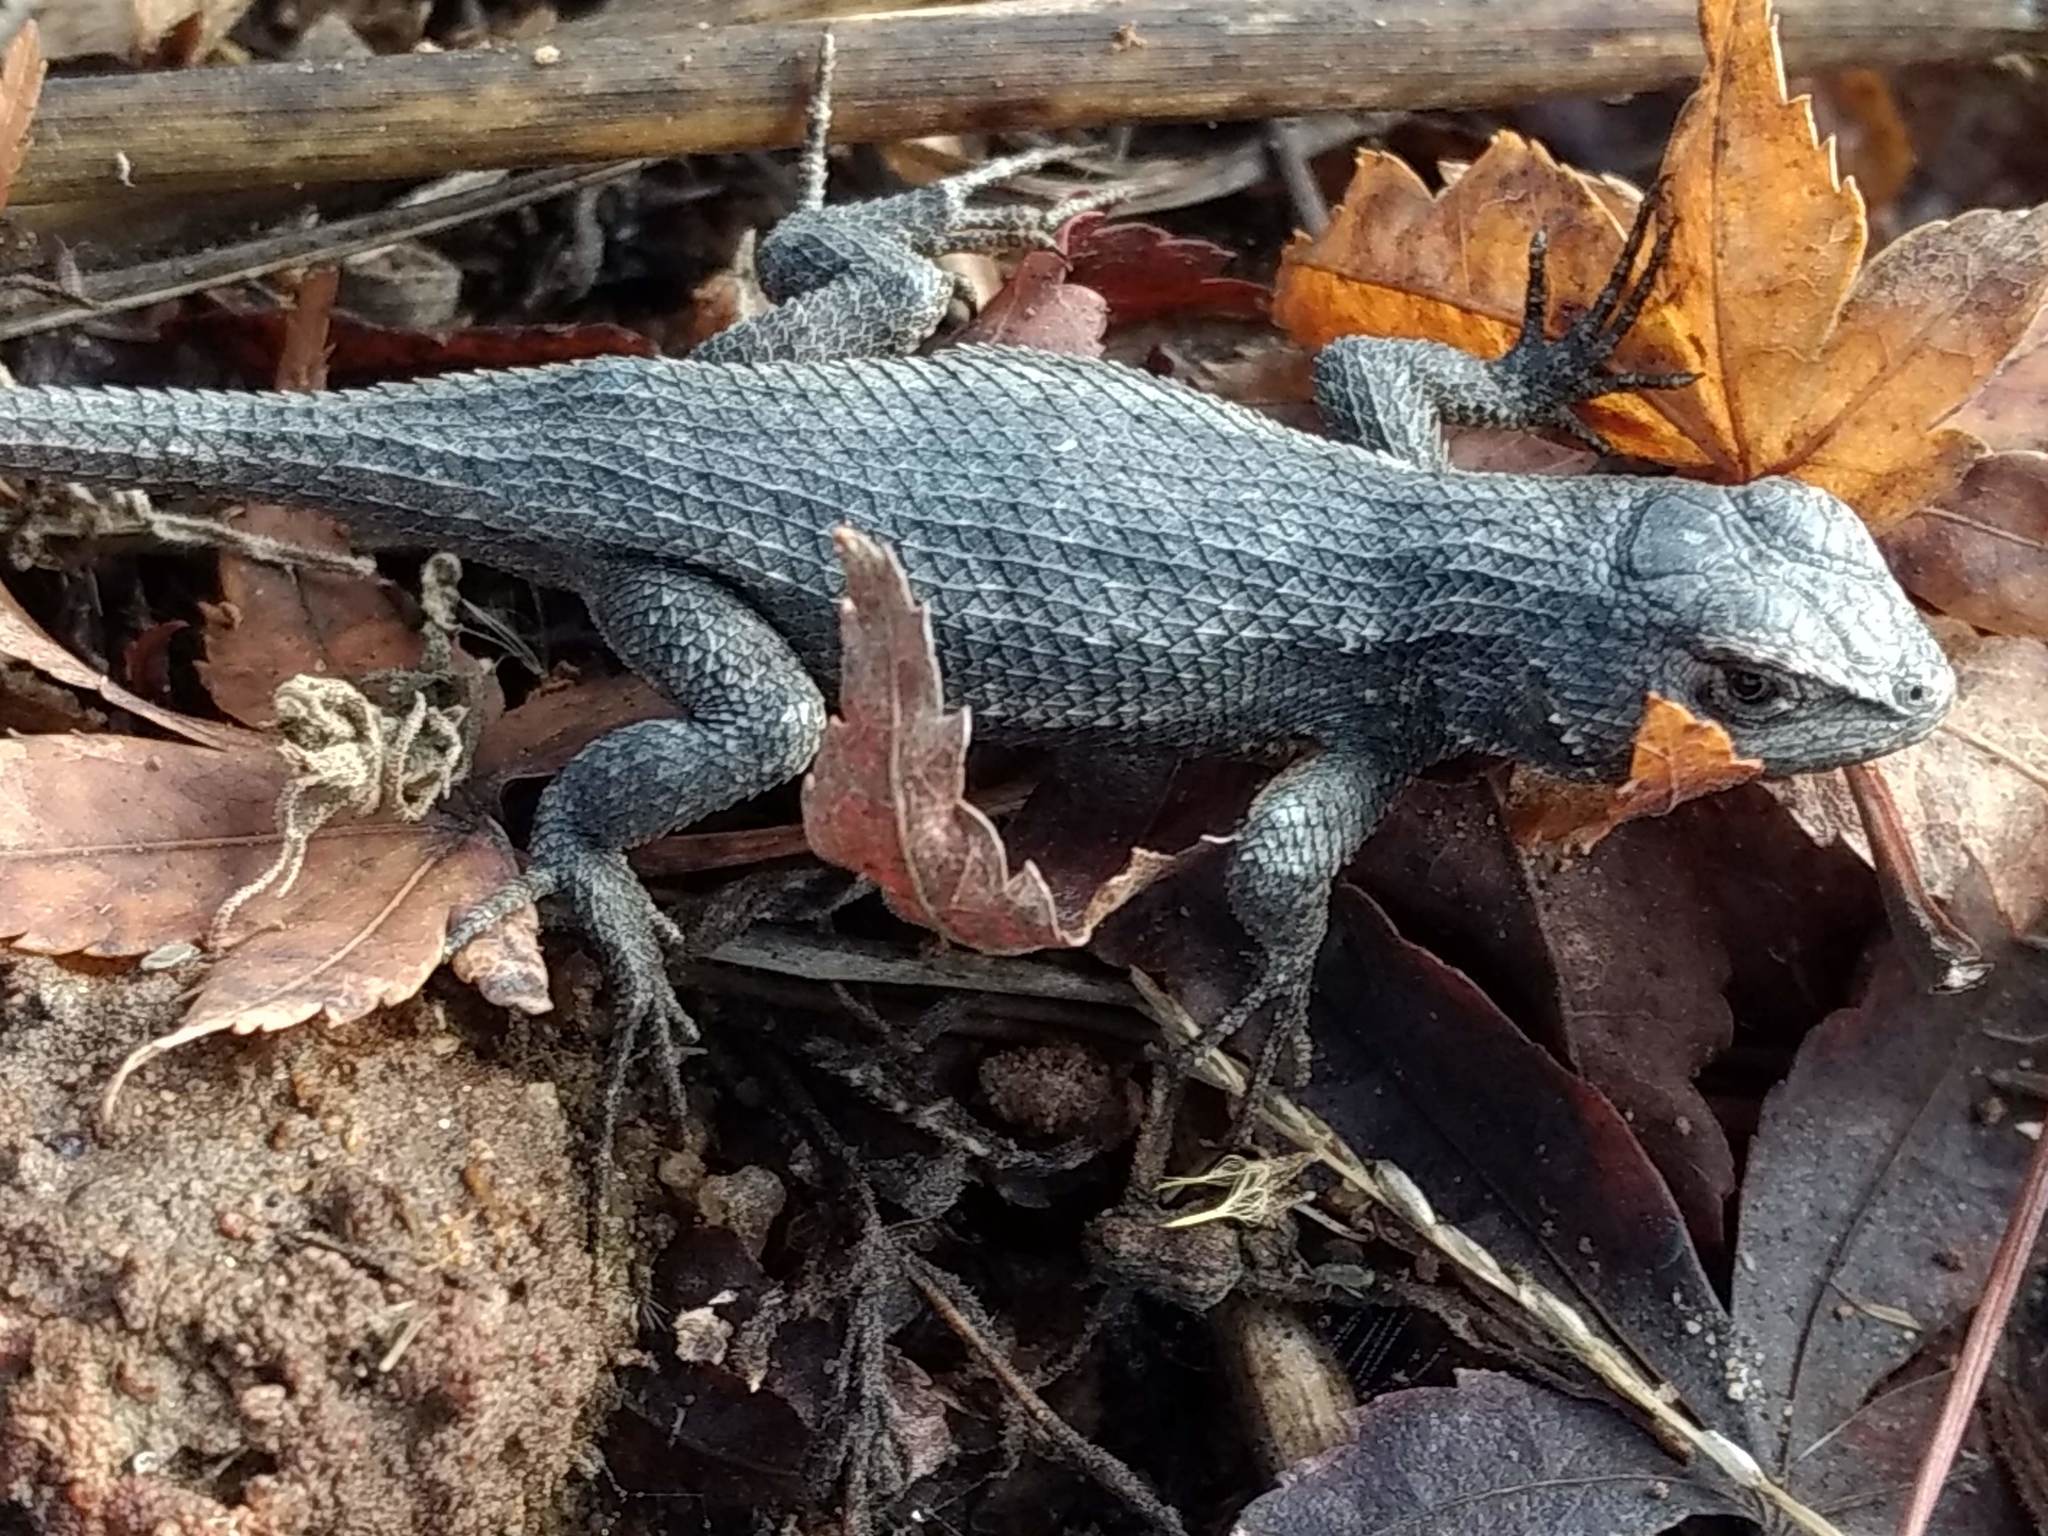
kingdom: Animalia
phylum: Chordata
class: Squamata
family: Phrynosomatidae
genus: Sceloporus
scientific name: Sceloporus occidentalis
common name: Western fence lizard
